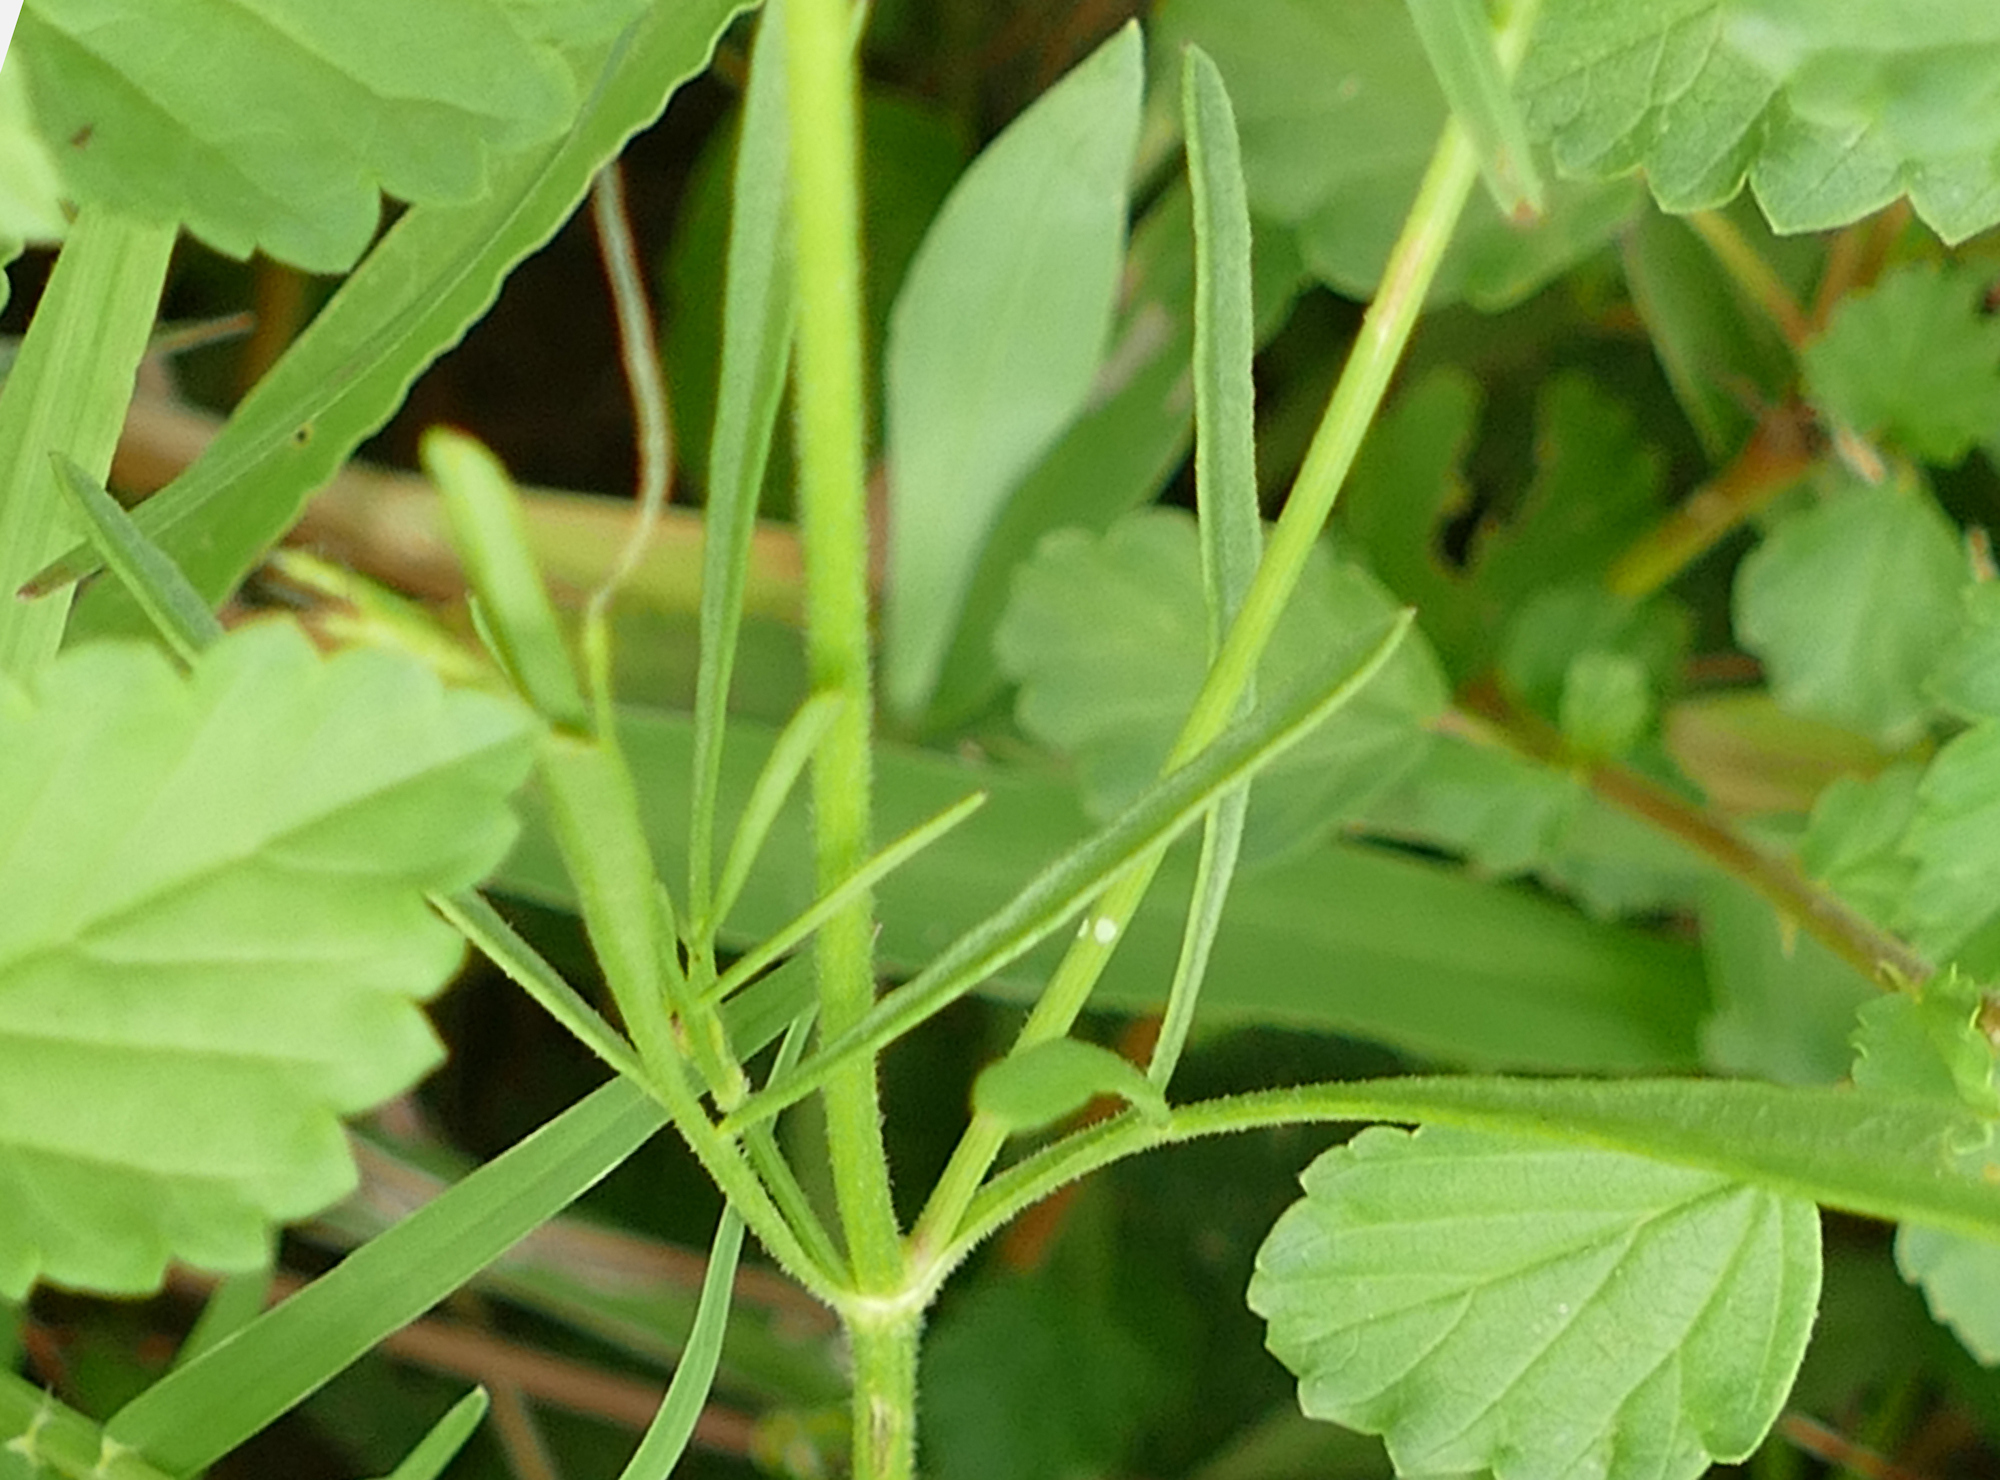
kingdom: Plantae
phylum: Tracheophyta
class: Magnoliopsida
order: Asterales
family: Asteraceae
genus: Coreopsis
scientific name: Coreopsis tinctoria
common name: Garden tickseed
